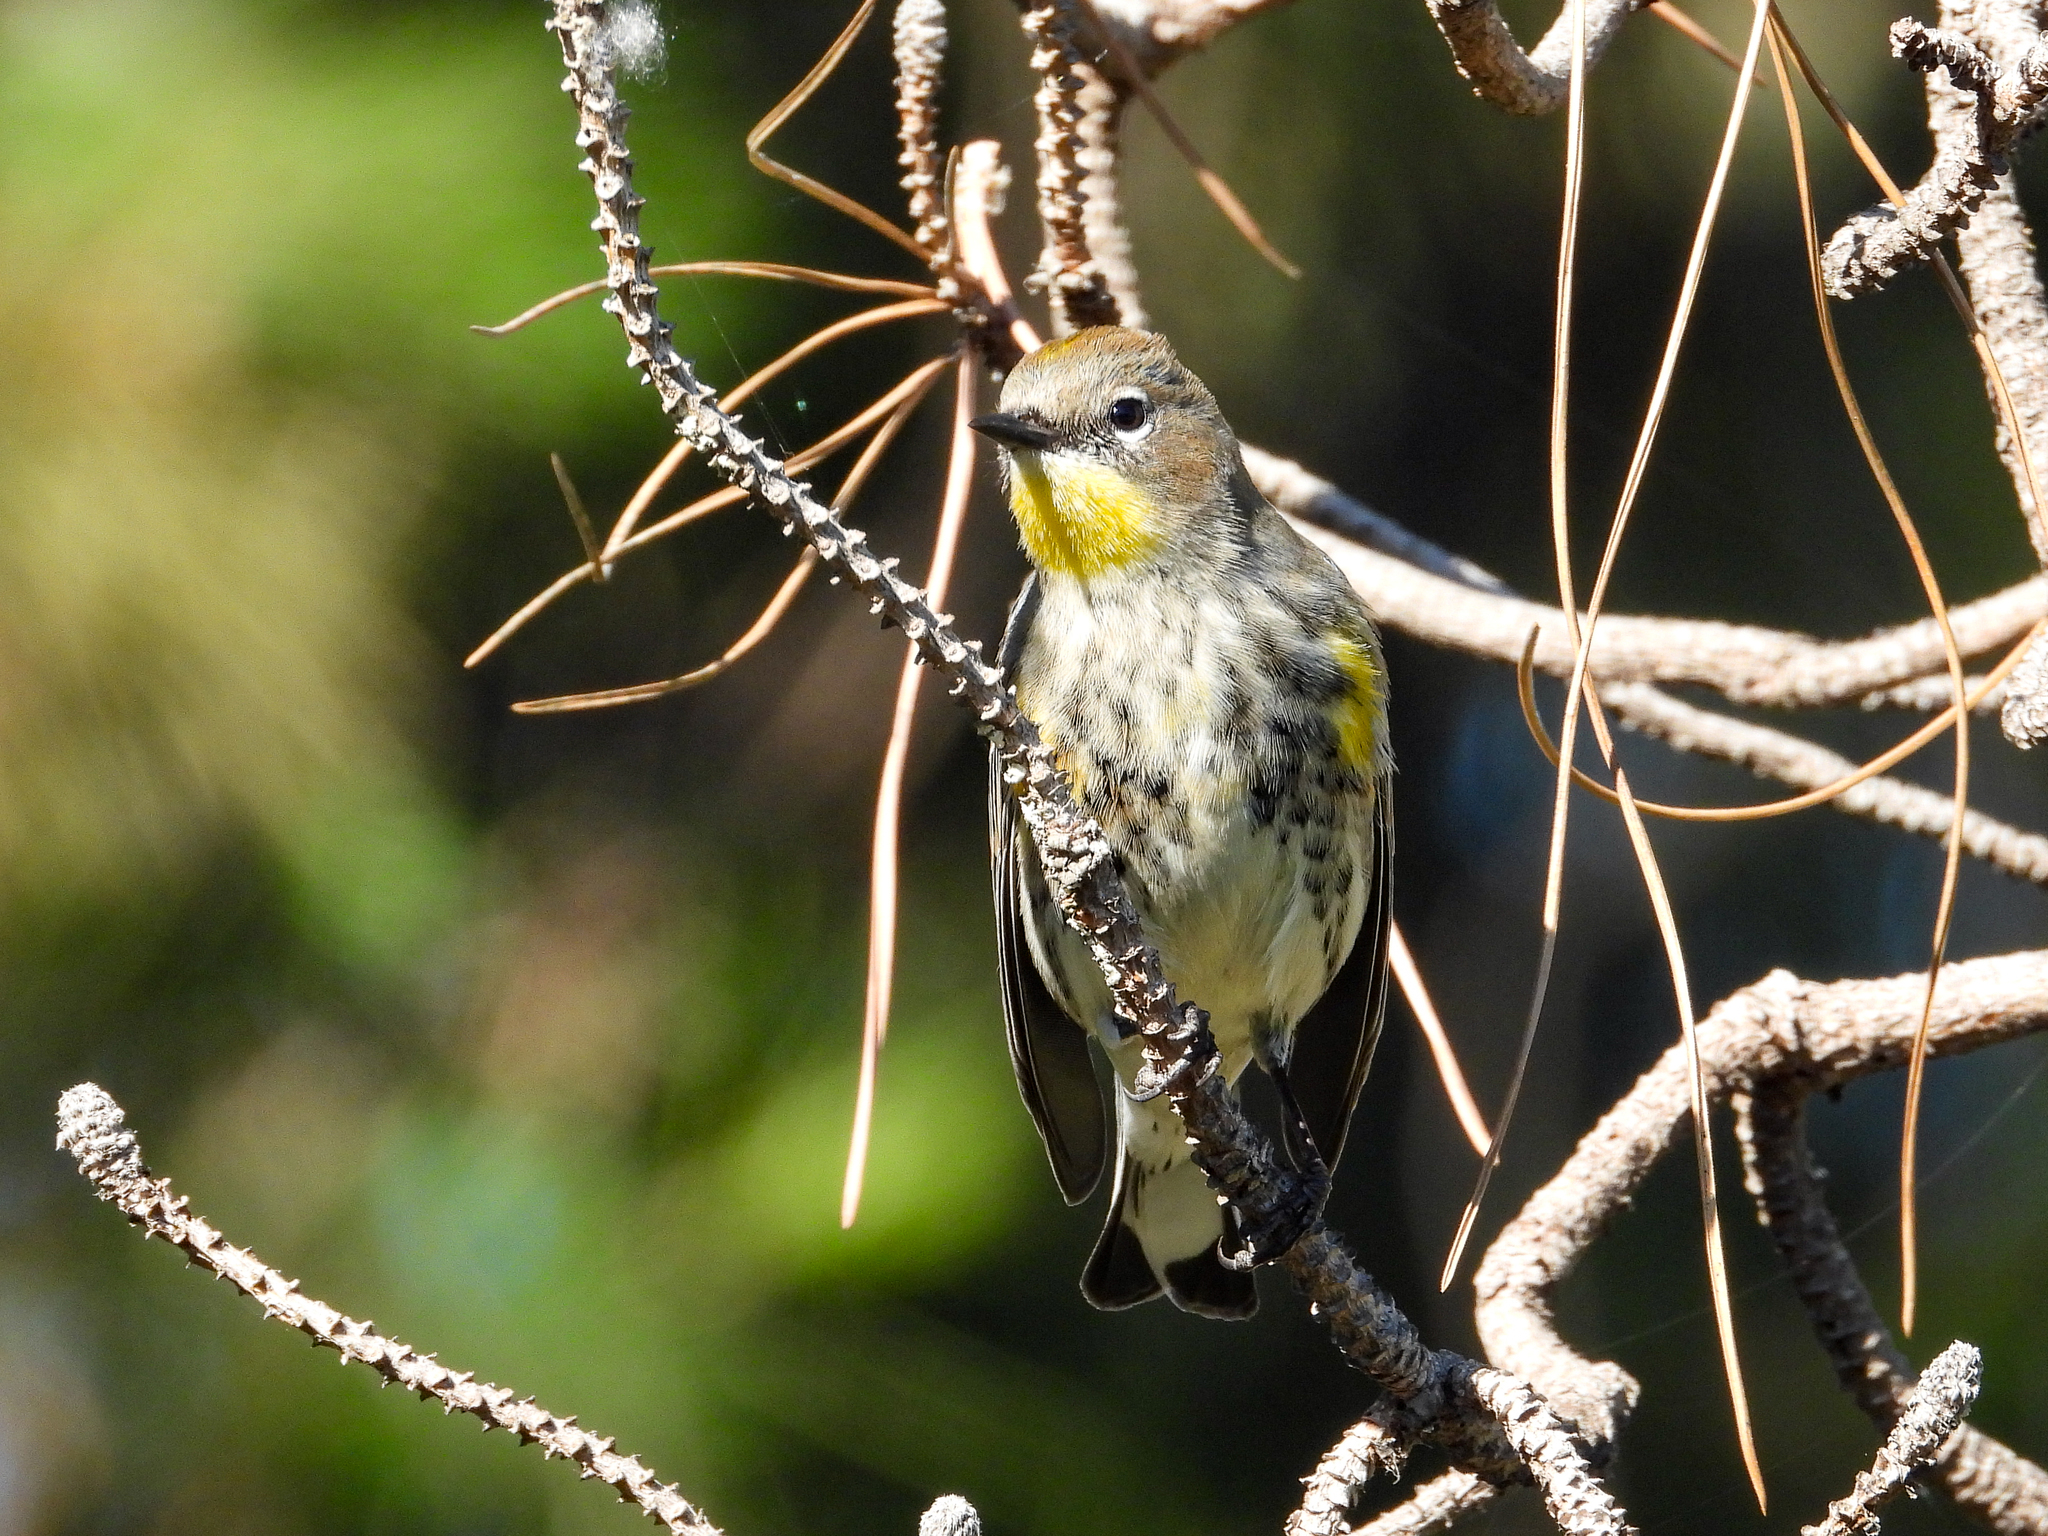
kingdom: Animalia
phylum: Chordata
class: Aves
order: Passeriformes
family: Parulidae
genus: Setophaga
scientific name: Setophaga coronata
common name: Myrtle warbler
